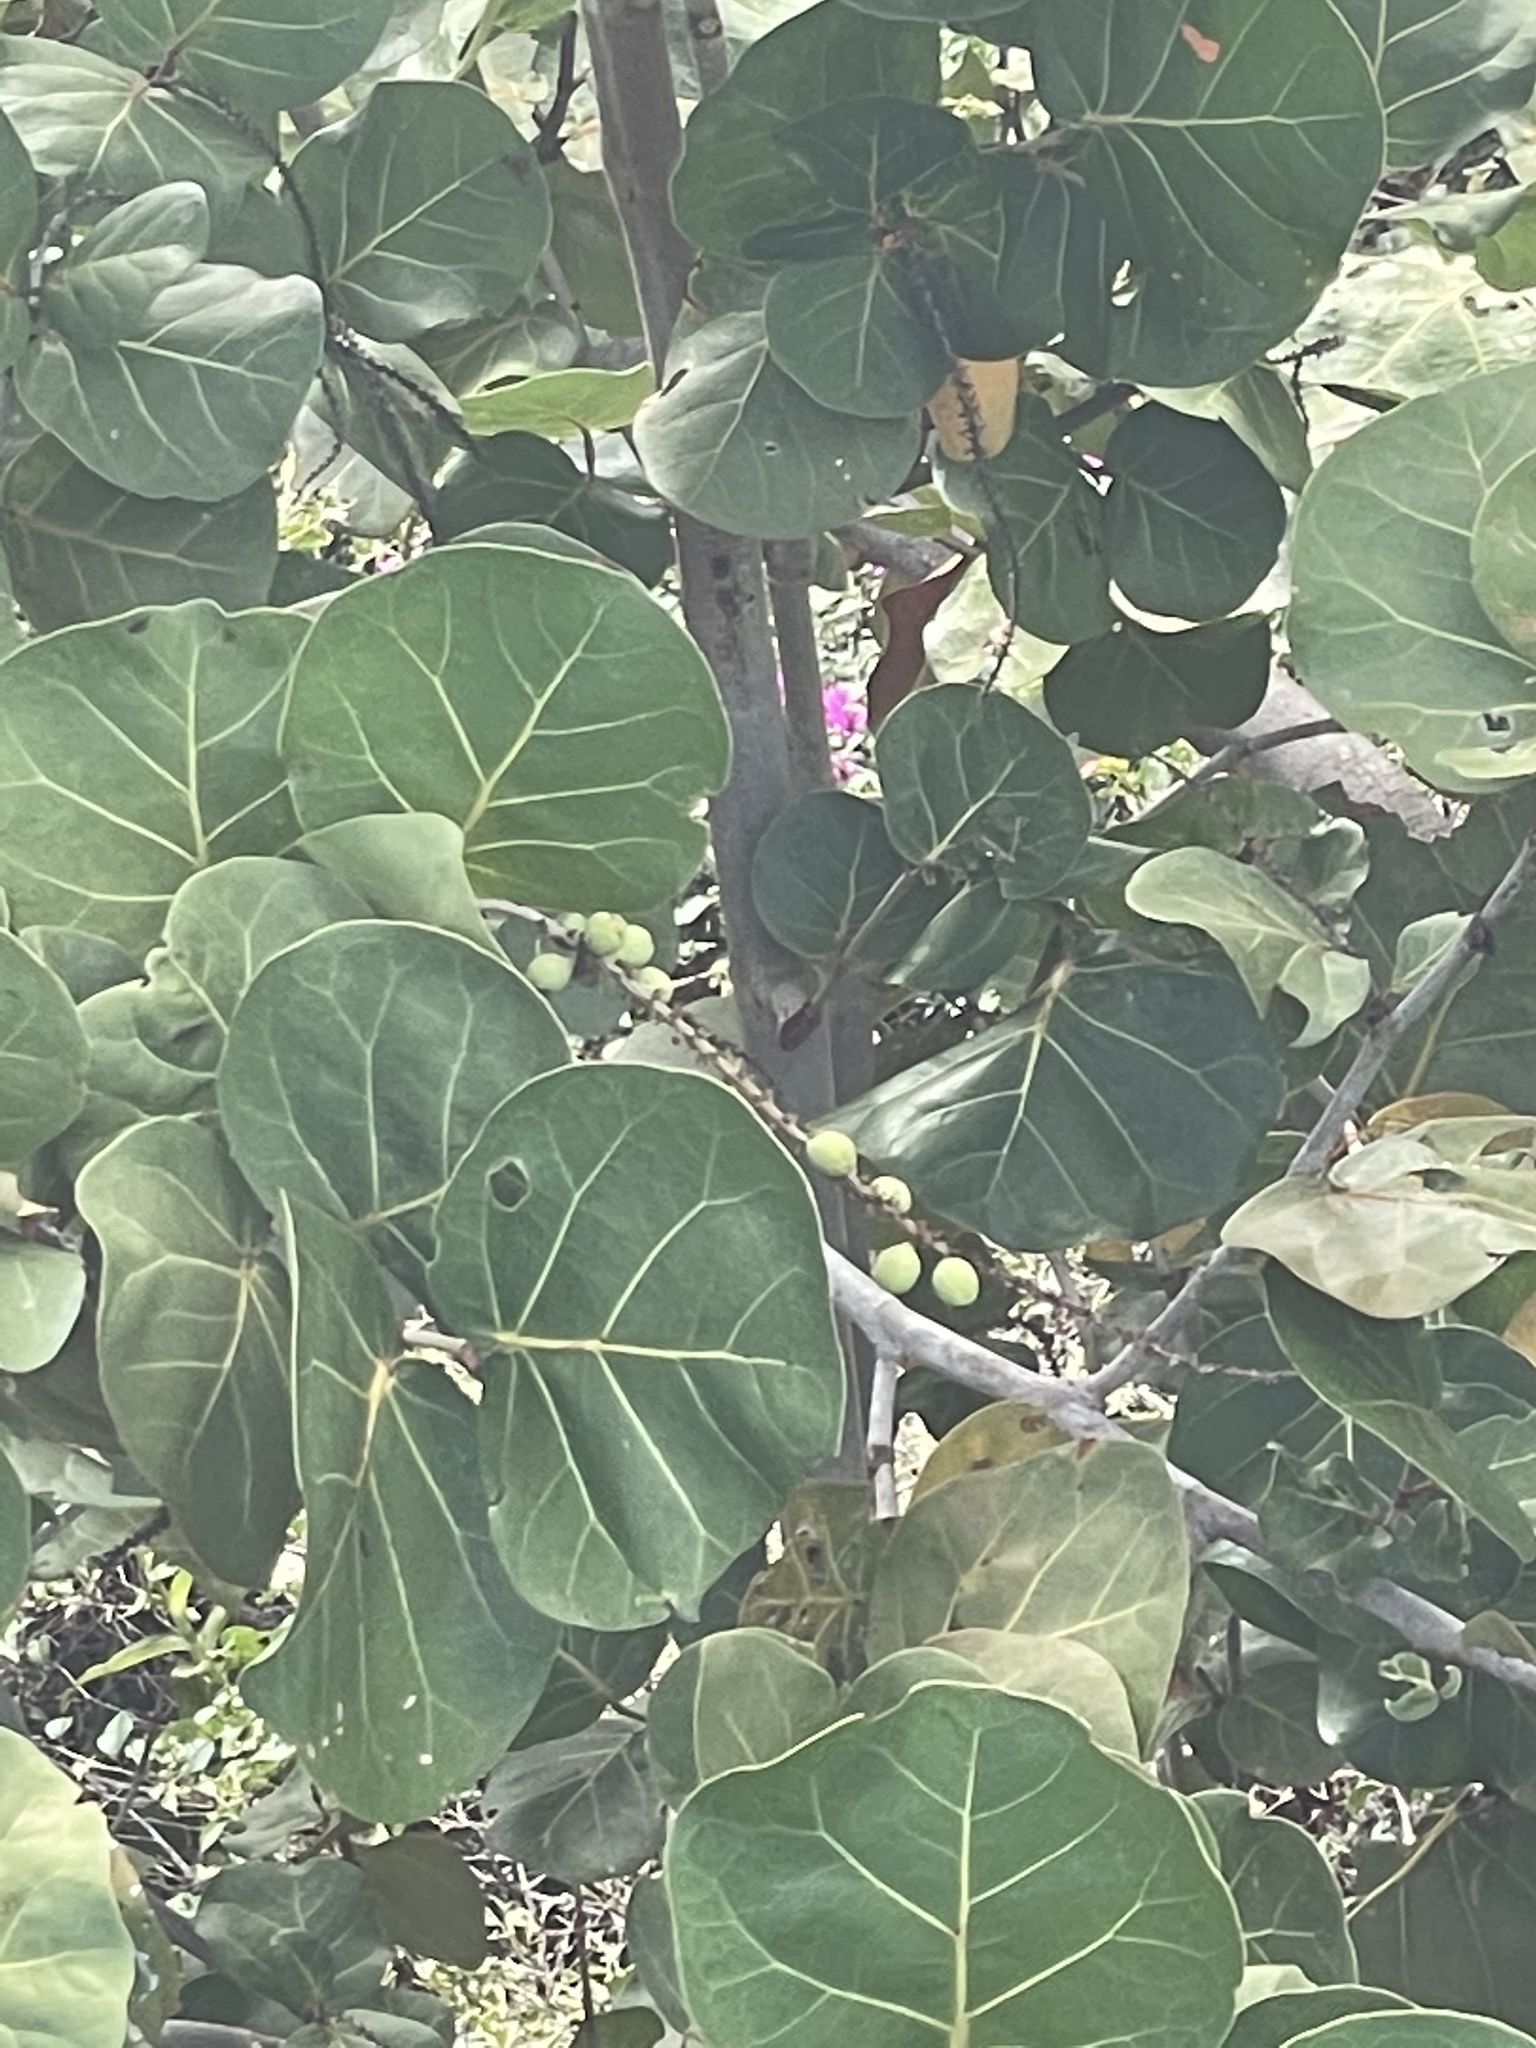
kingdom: Plantae
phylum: Tracheophyta
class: Magnoliopsida
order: Caryophyllales
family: Polygonaceae
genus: Coccoloba
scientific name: Coccoloba uvifera
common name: Seagrape
